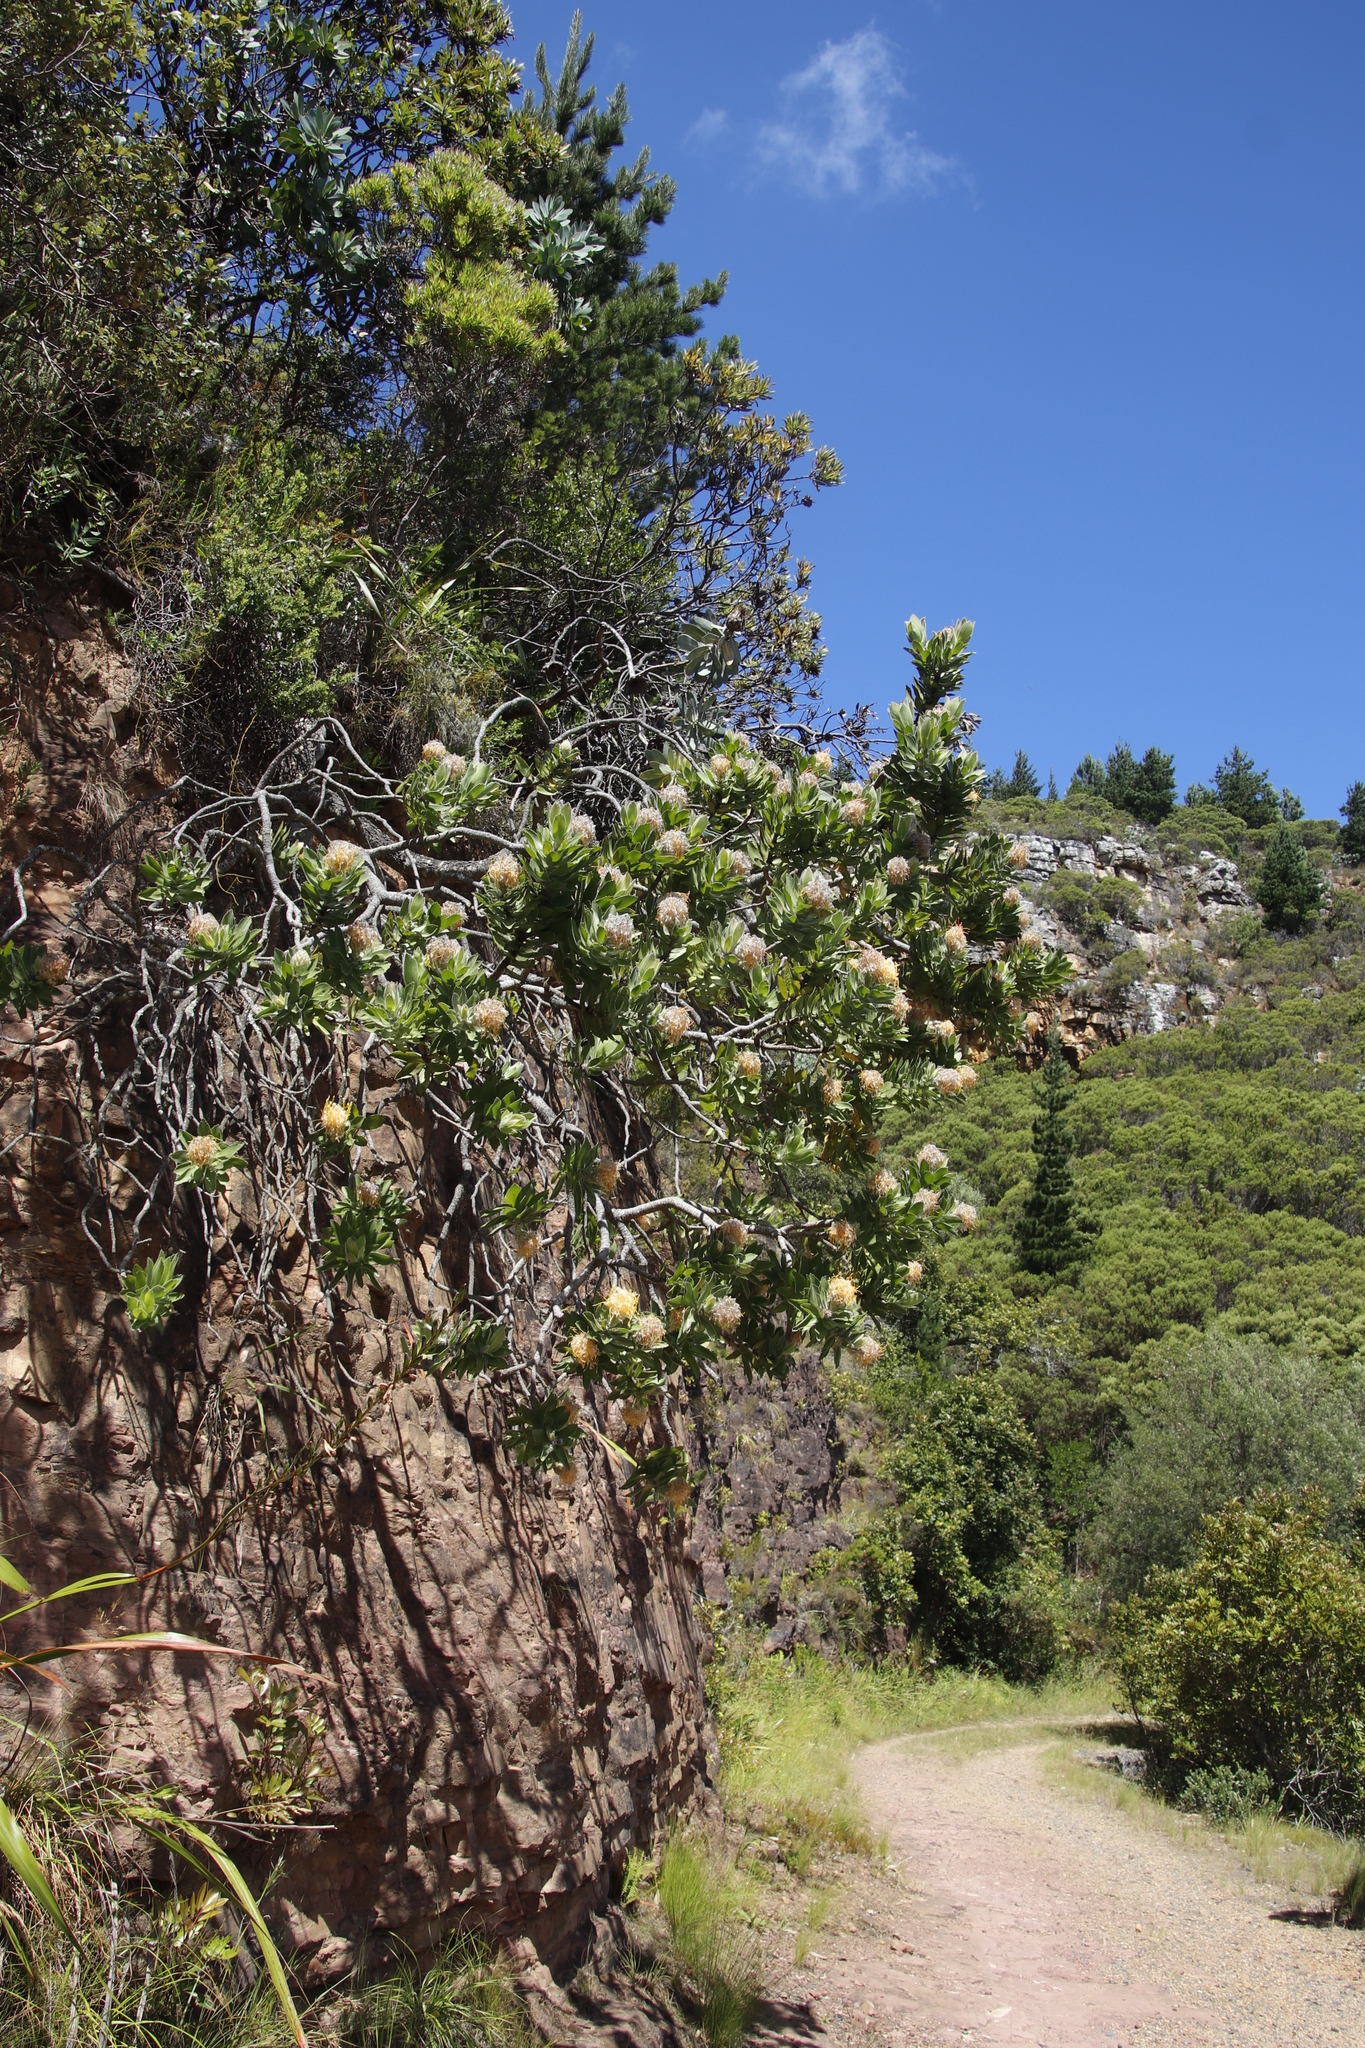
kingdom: Plantae
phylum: Tracheophyta
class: Magnoliopsida
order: Proteales
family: Proteaceae
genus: Leucospermum
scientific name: Leucospermum conocarpodendron
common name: Tree pincushion
